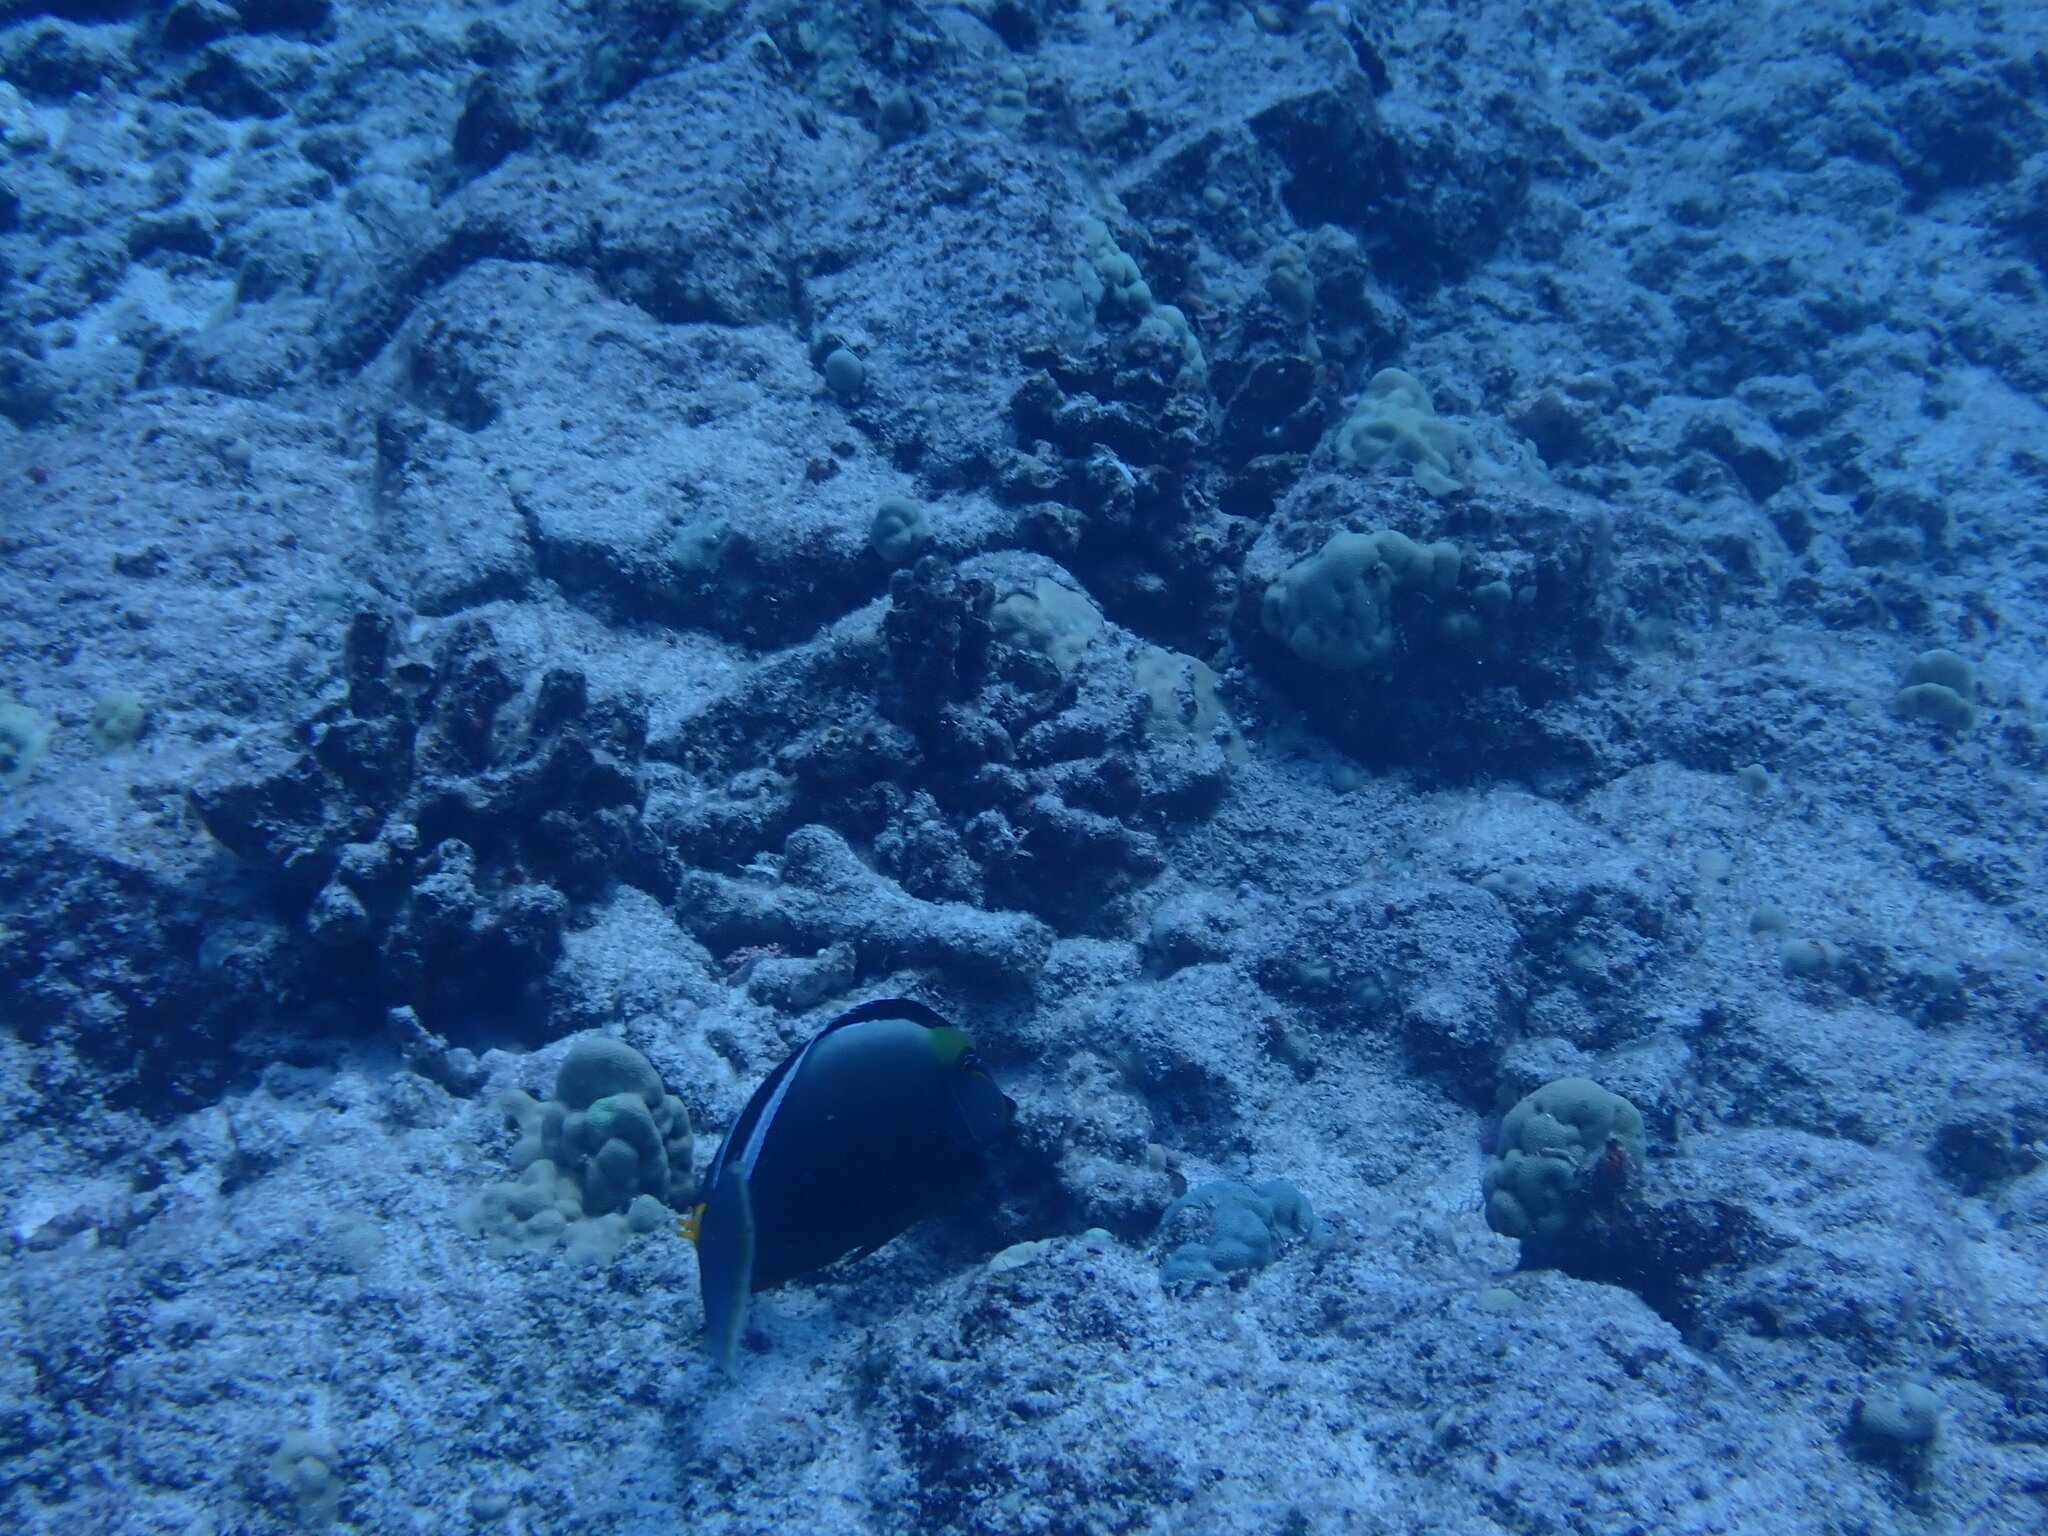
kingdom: Animalia
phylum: Chordata
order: Perciformes
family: Acanthuridae
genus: Naso
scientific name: Naso lituratus
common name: Orangespine unicornfish
